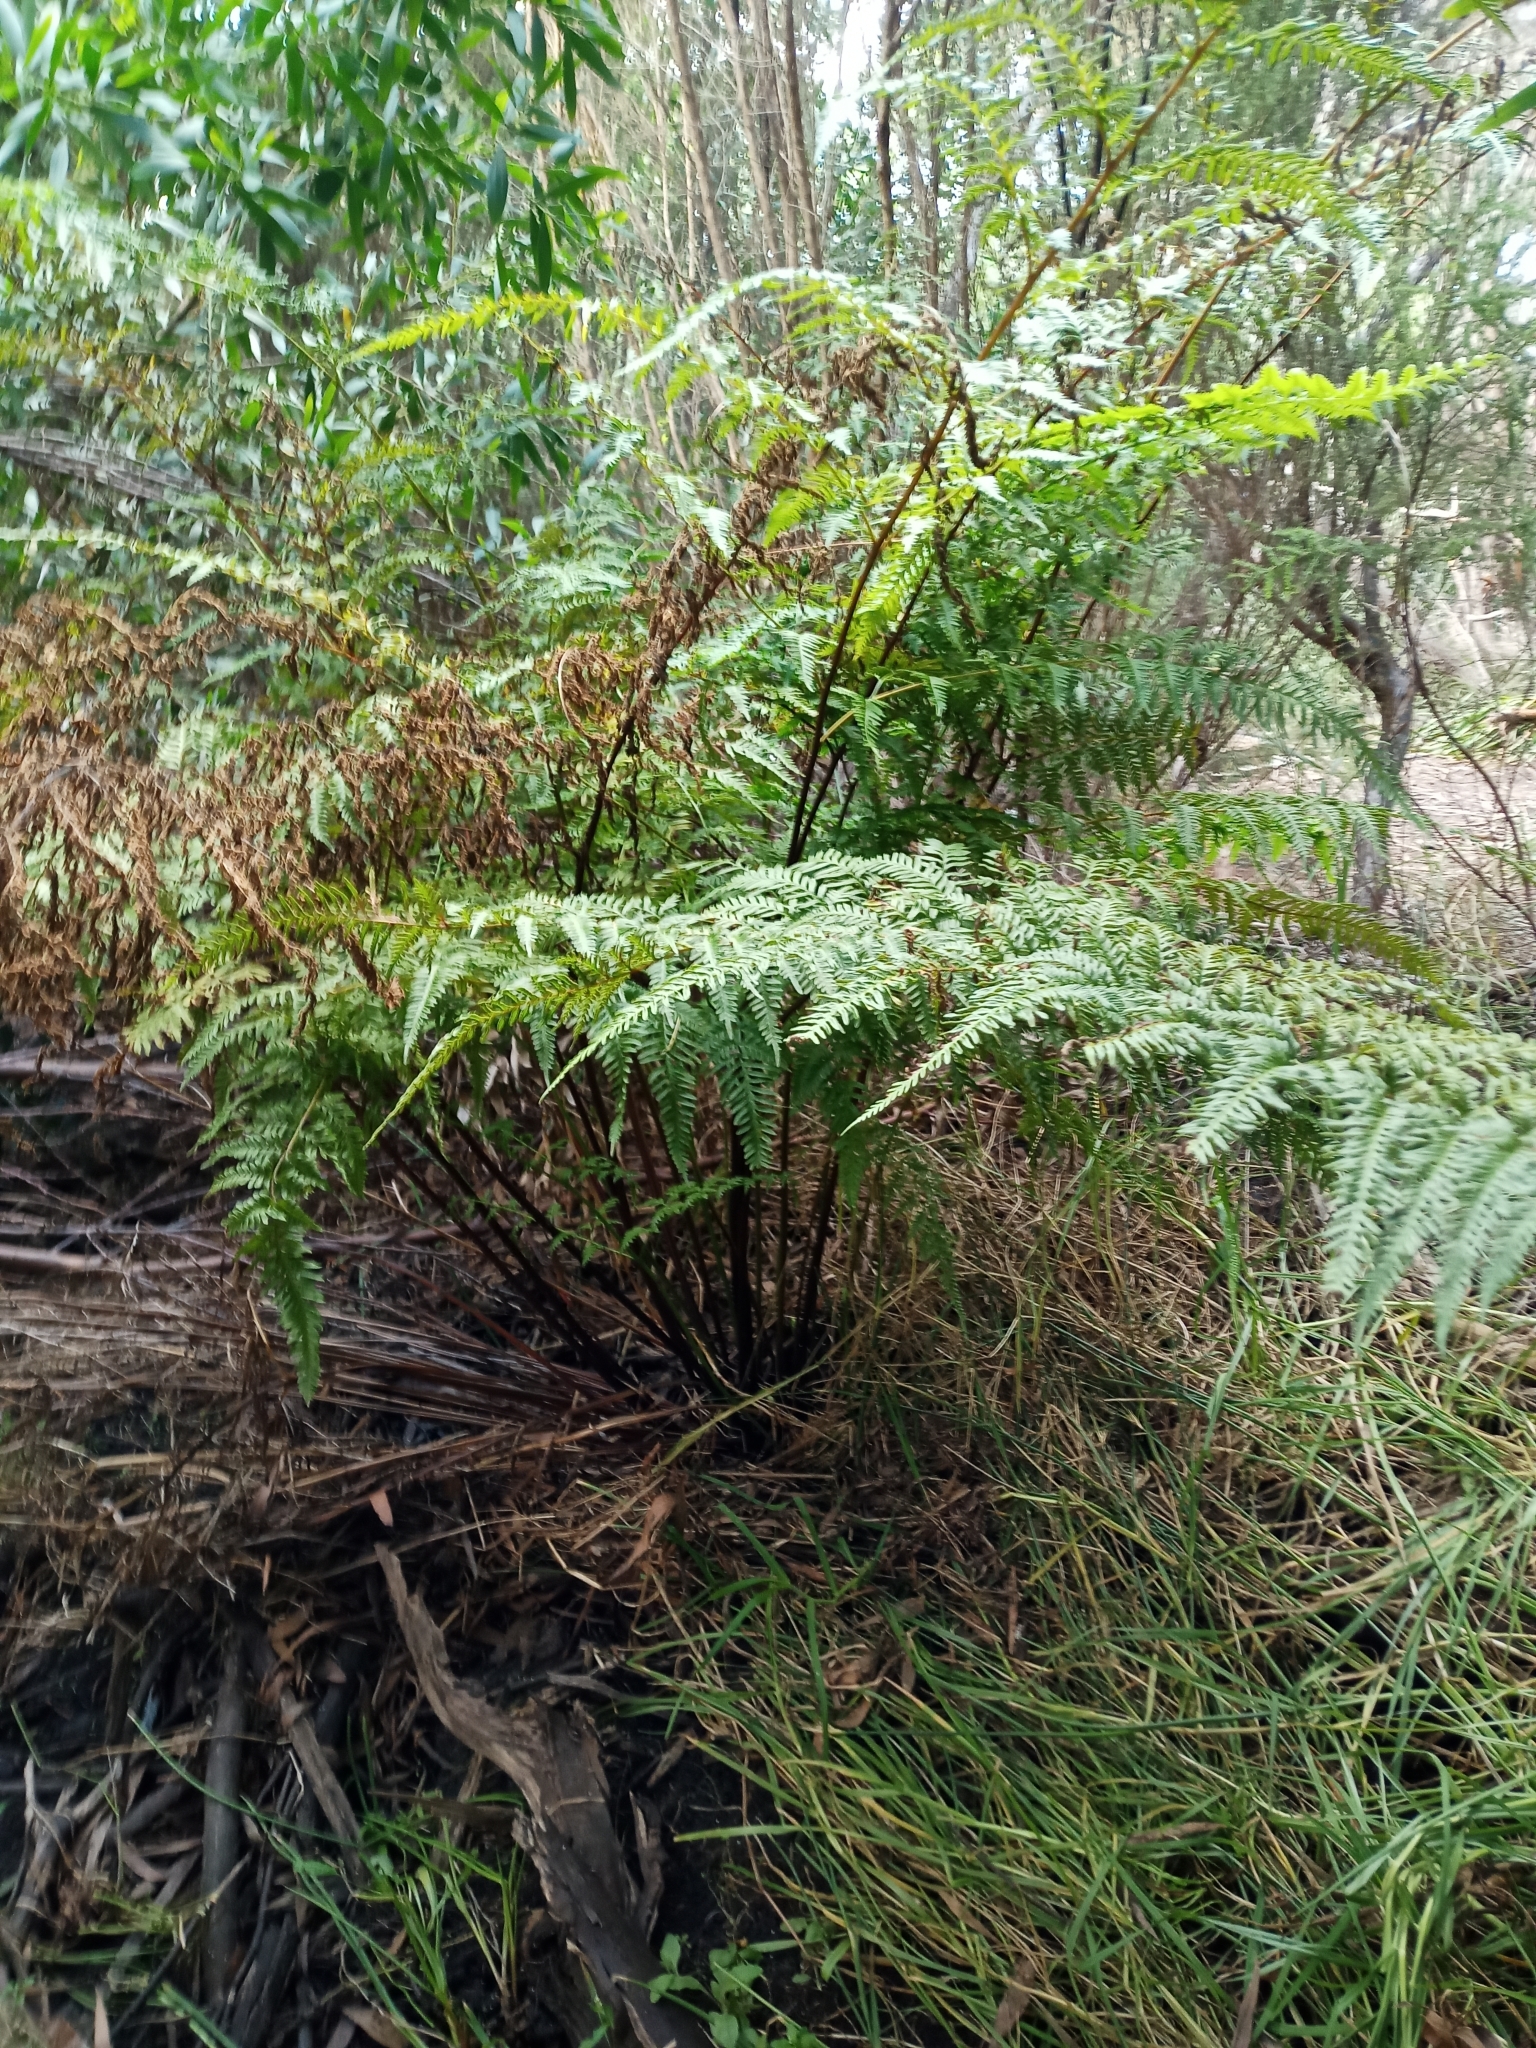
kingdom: Plantae
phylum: Tracheophyta
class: Polypodiopsida
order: Polypodiales
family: Pteridaceae
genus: Pteris
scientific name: Pteris tremula
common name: Australian brake
